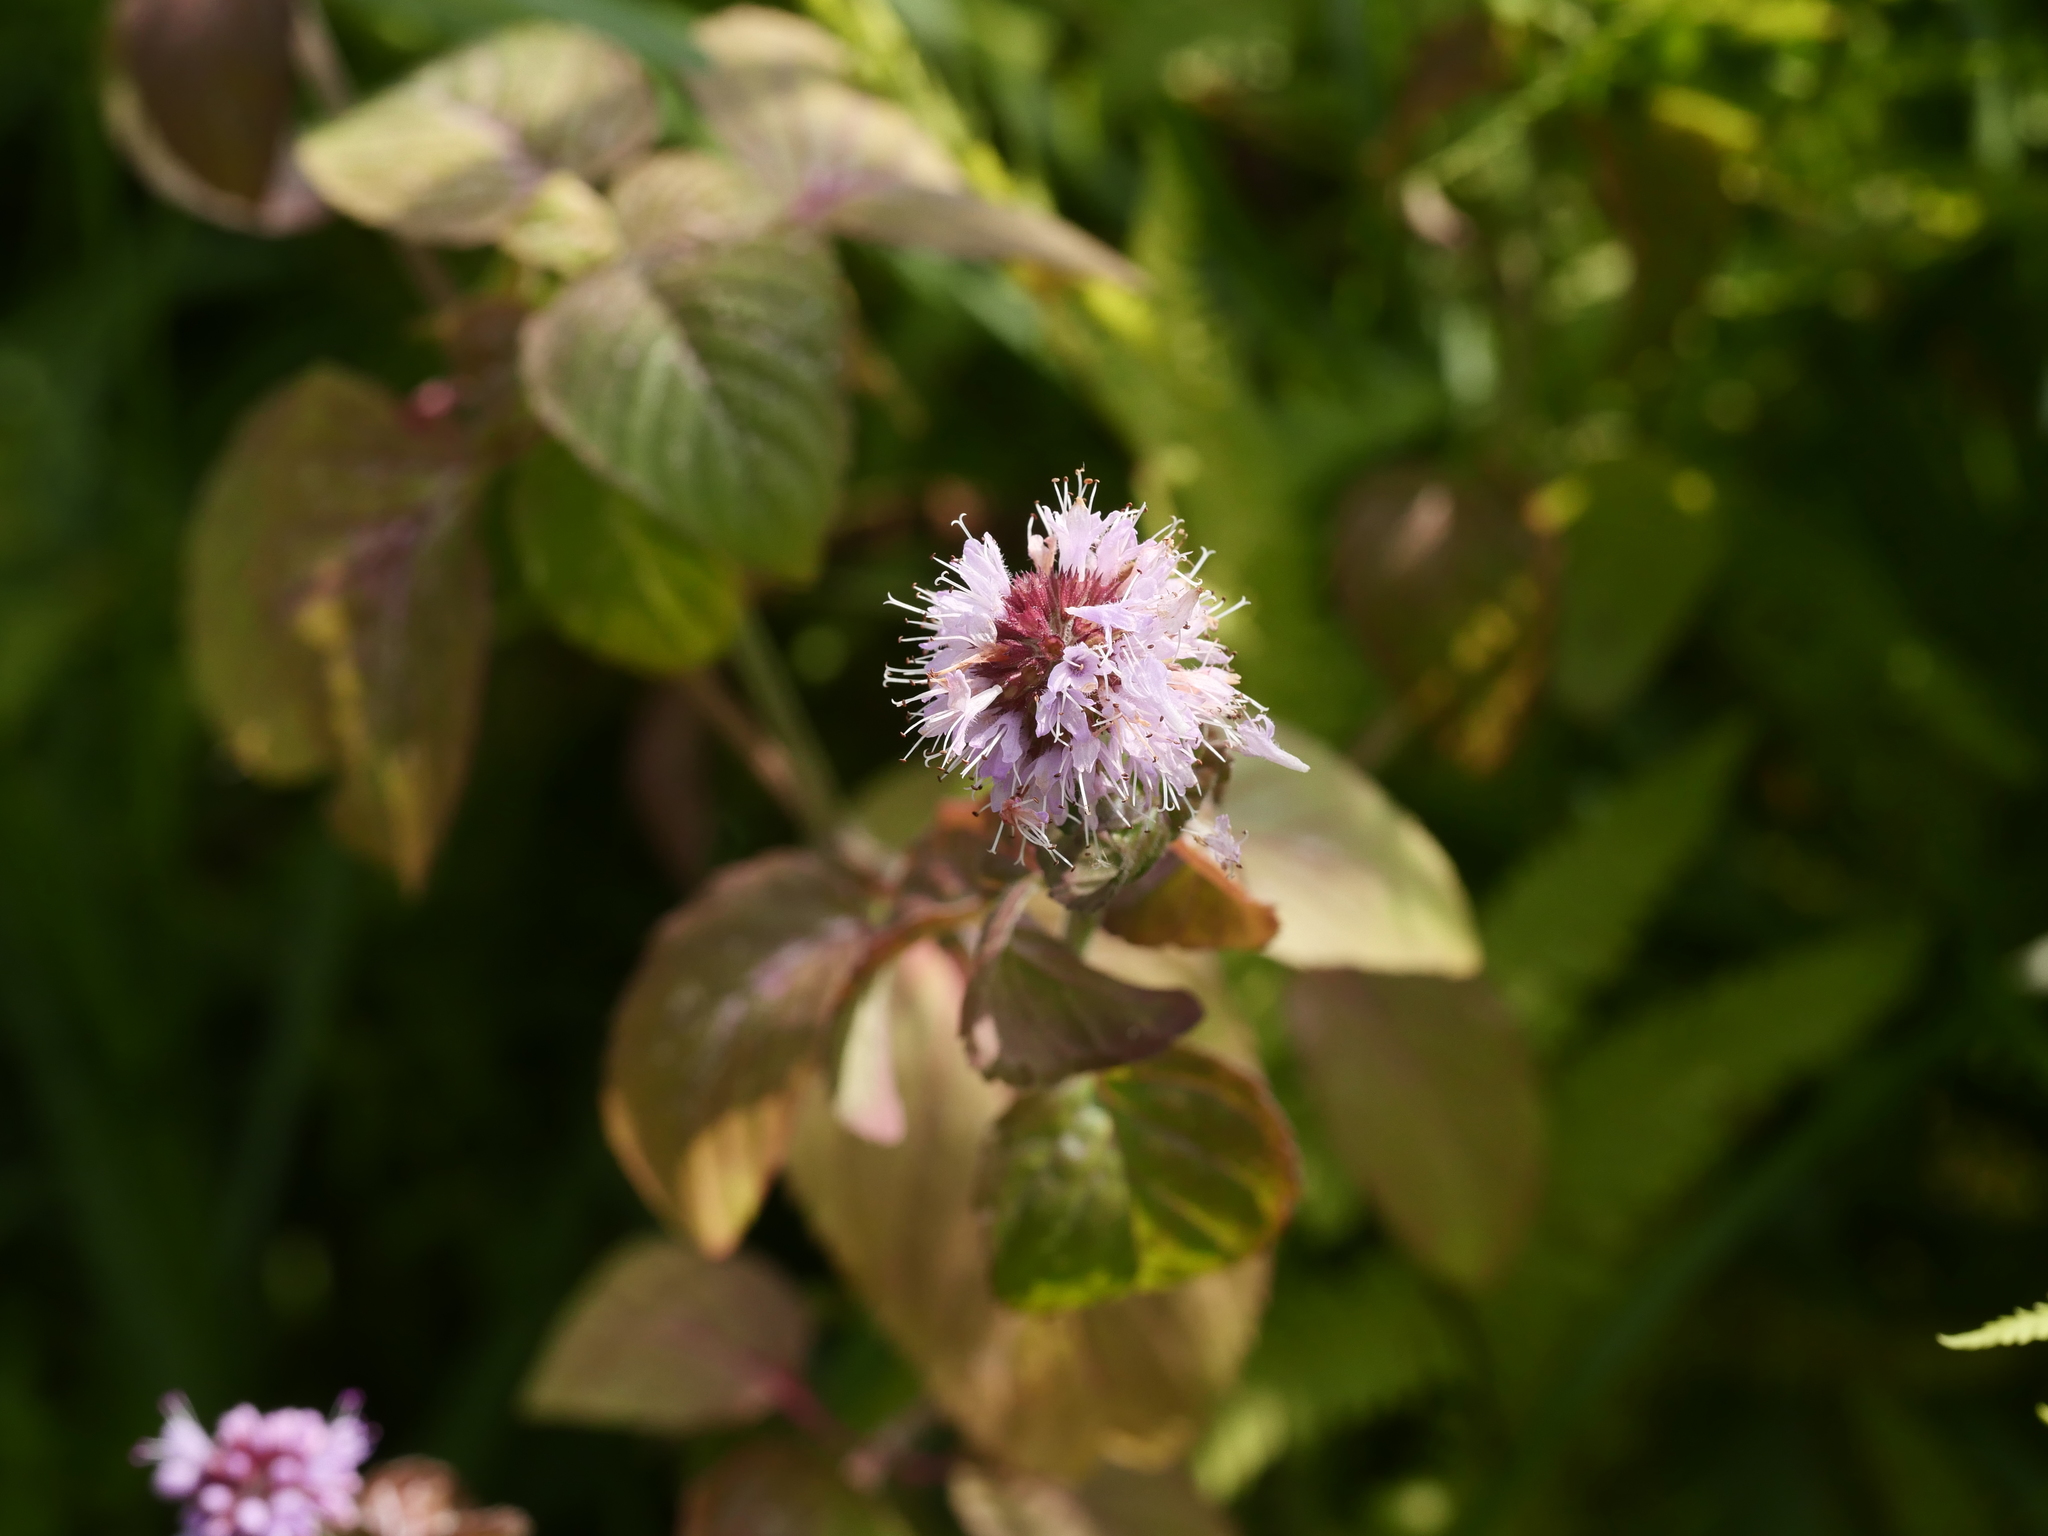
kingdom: Plantae
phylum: Tracheophyta
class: Magnoliopsida
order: Lamiales
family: Lamiaceae
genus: Mentha
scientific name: Mentha aquatica
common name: Water mint
